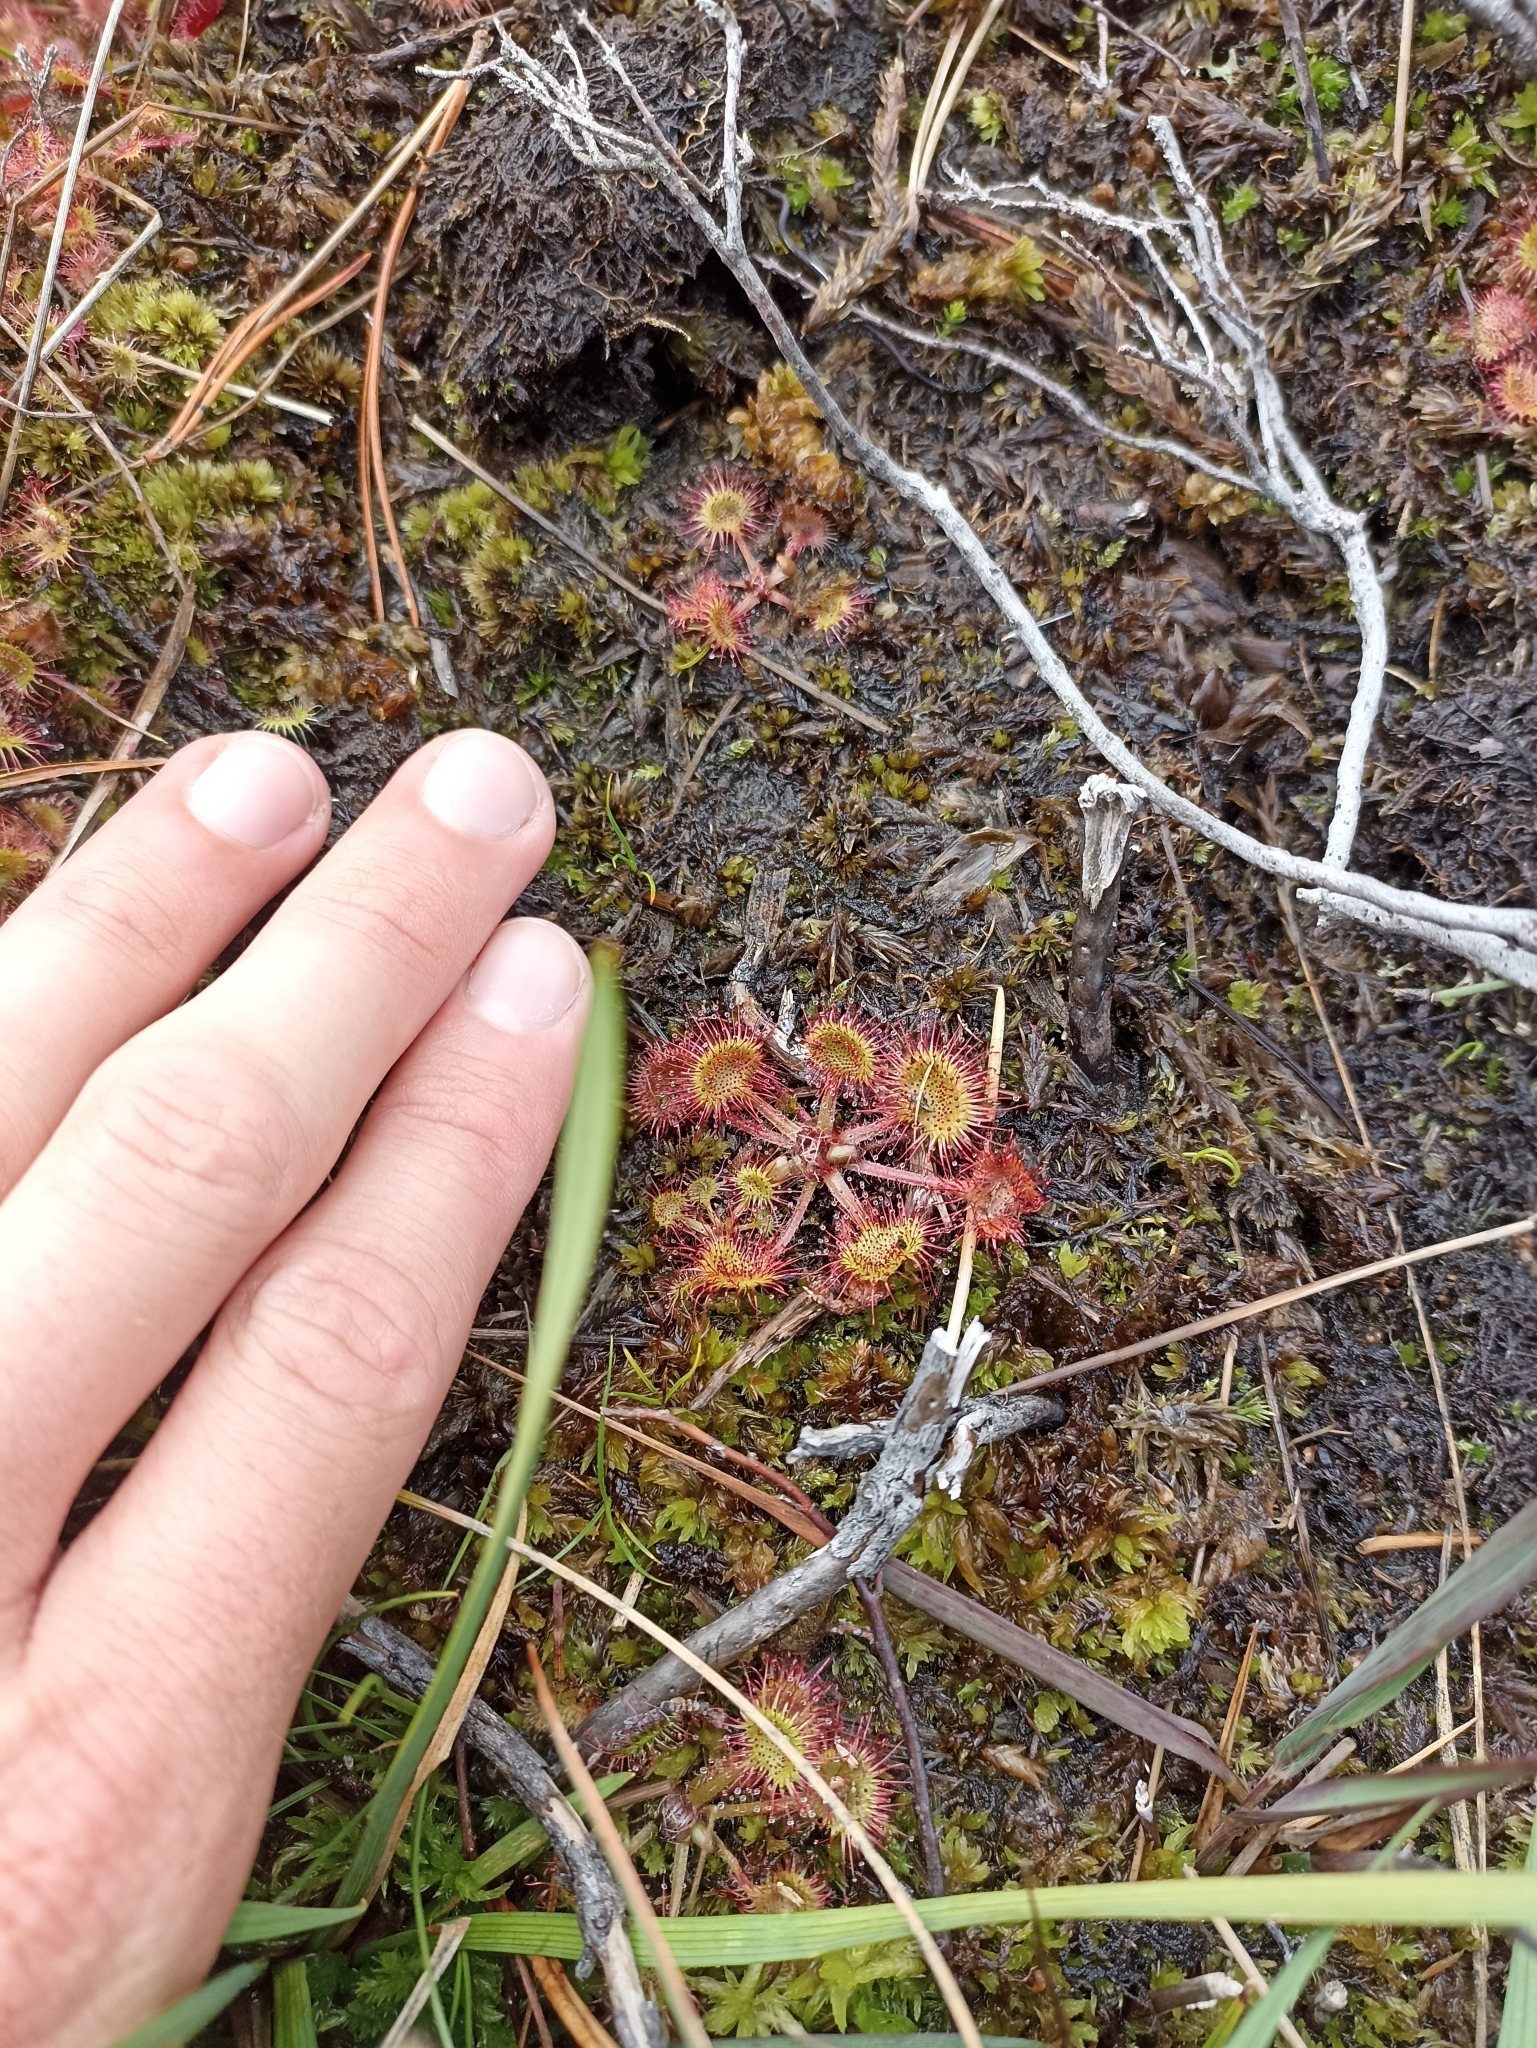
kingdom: Plantae
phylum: Tracheophyta
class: Magnoliopsida
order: Caryophyllales
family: Droseraceae
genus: Drosera
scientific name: Drosera rotundifolia
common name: Round-leaved sundew
